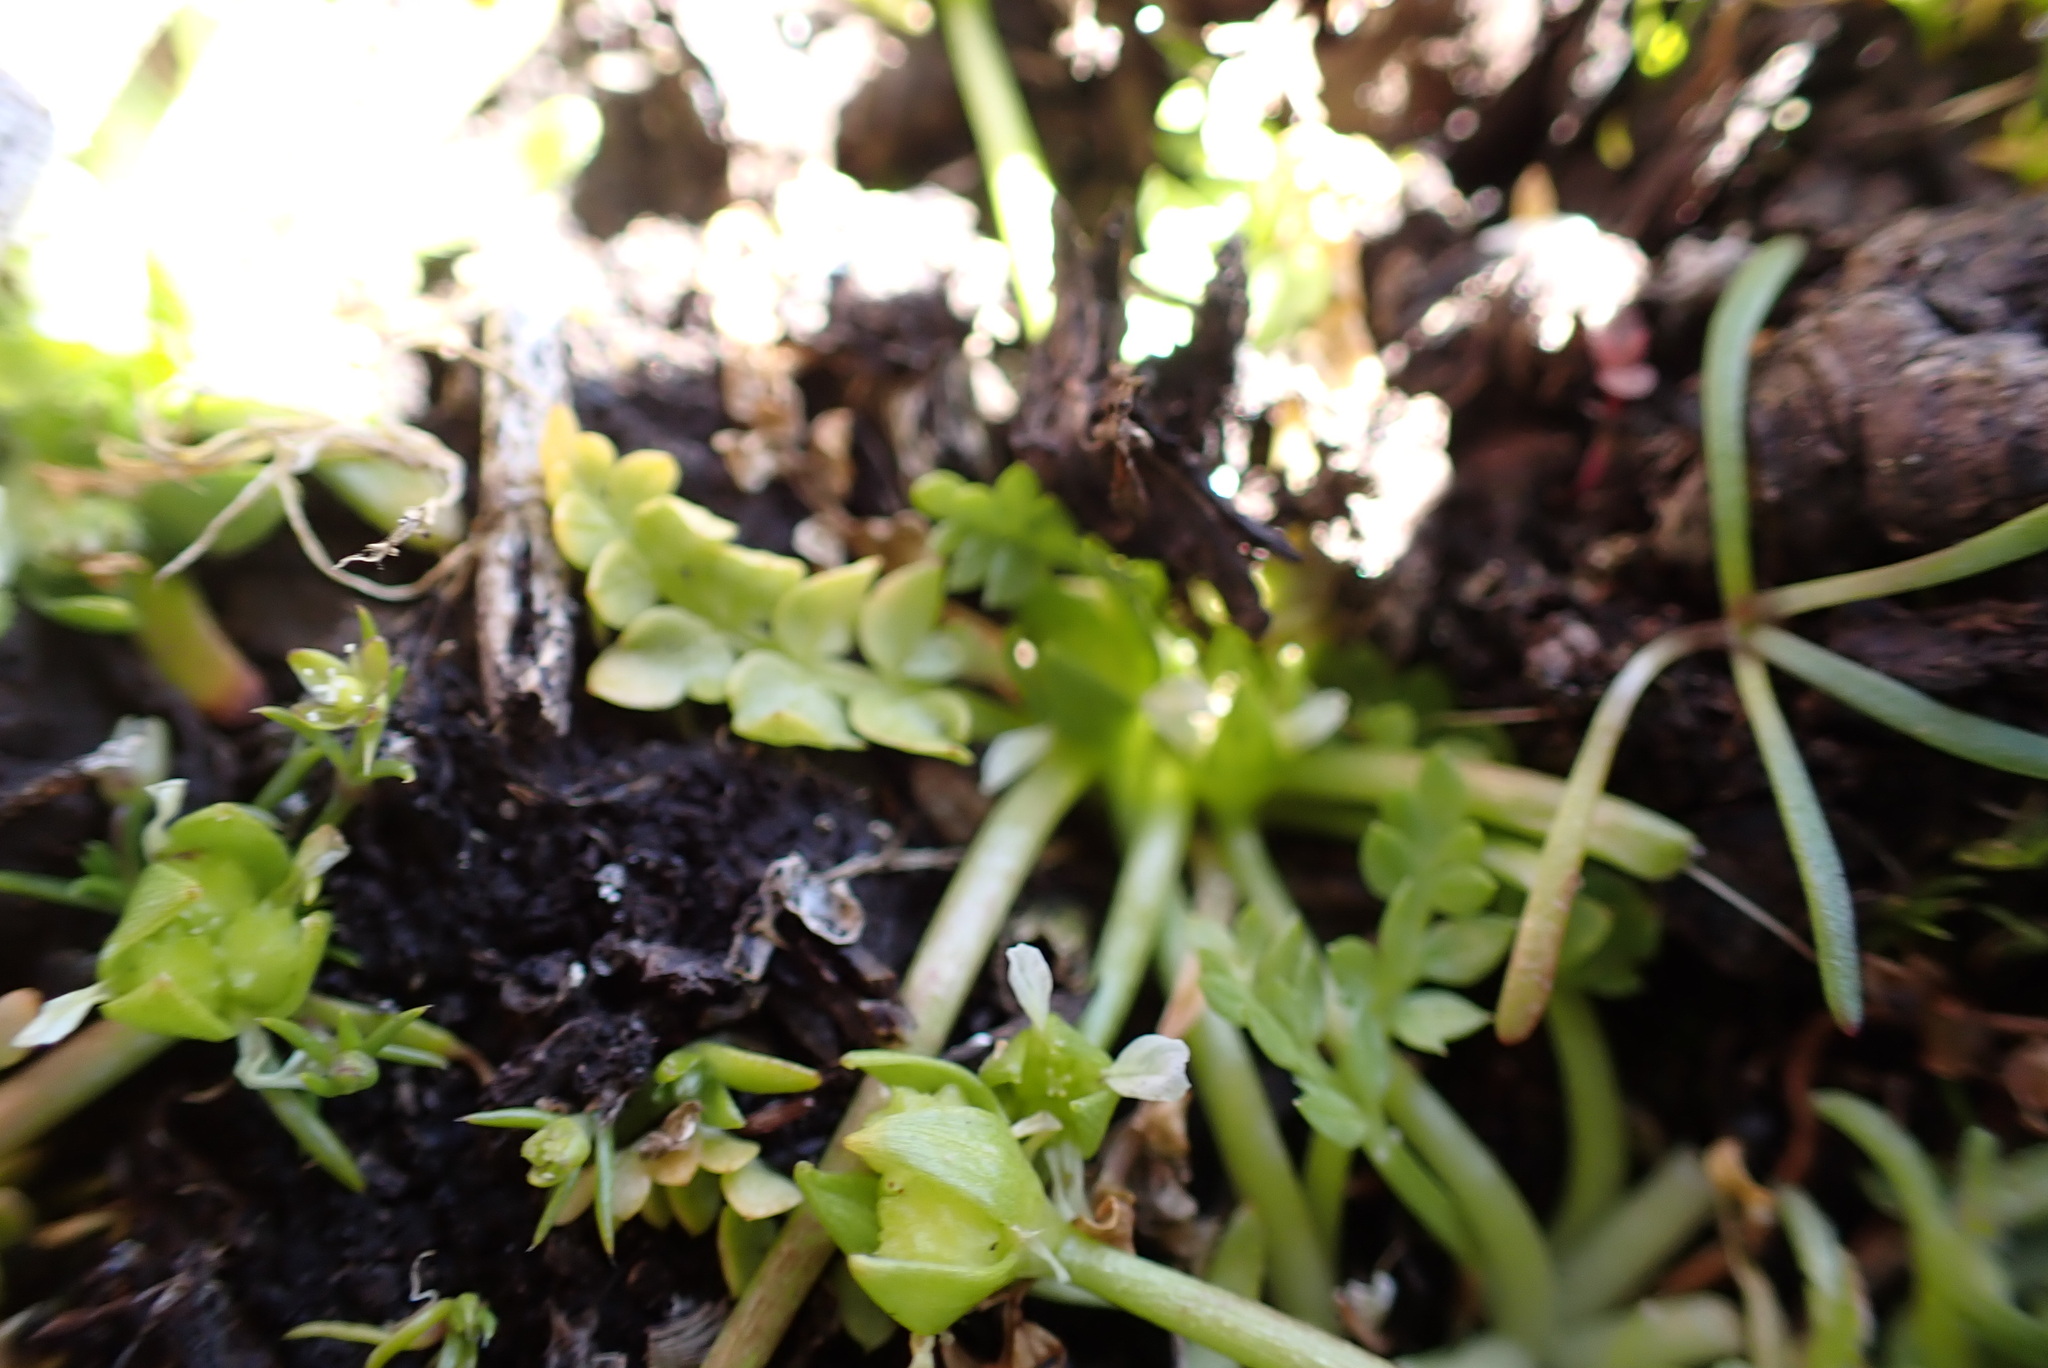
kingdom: Plantae
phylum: Tracheophyta
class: Magnoliopsida
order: Brassicales
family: Limnanthaceae
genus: Limnanthes
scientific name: Limnanthes macounii
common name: Macoun's meadowfoam
